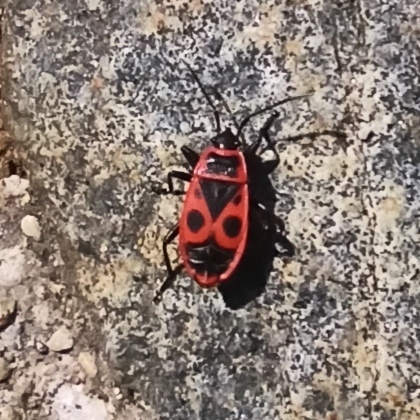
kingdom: Animalia
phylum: Arthropoda
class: Insecta
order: Hemiptera
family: Pyrrhocoridae
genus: Pyrrhocoris
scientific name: Pyrrhocoris apterus
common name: Firebug
